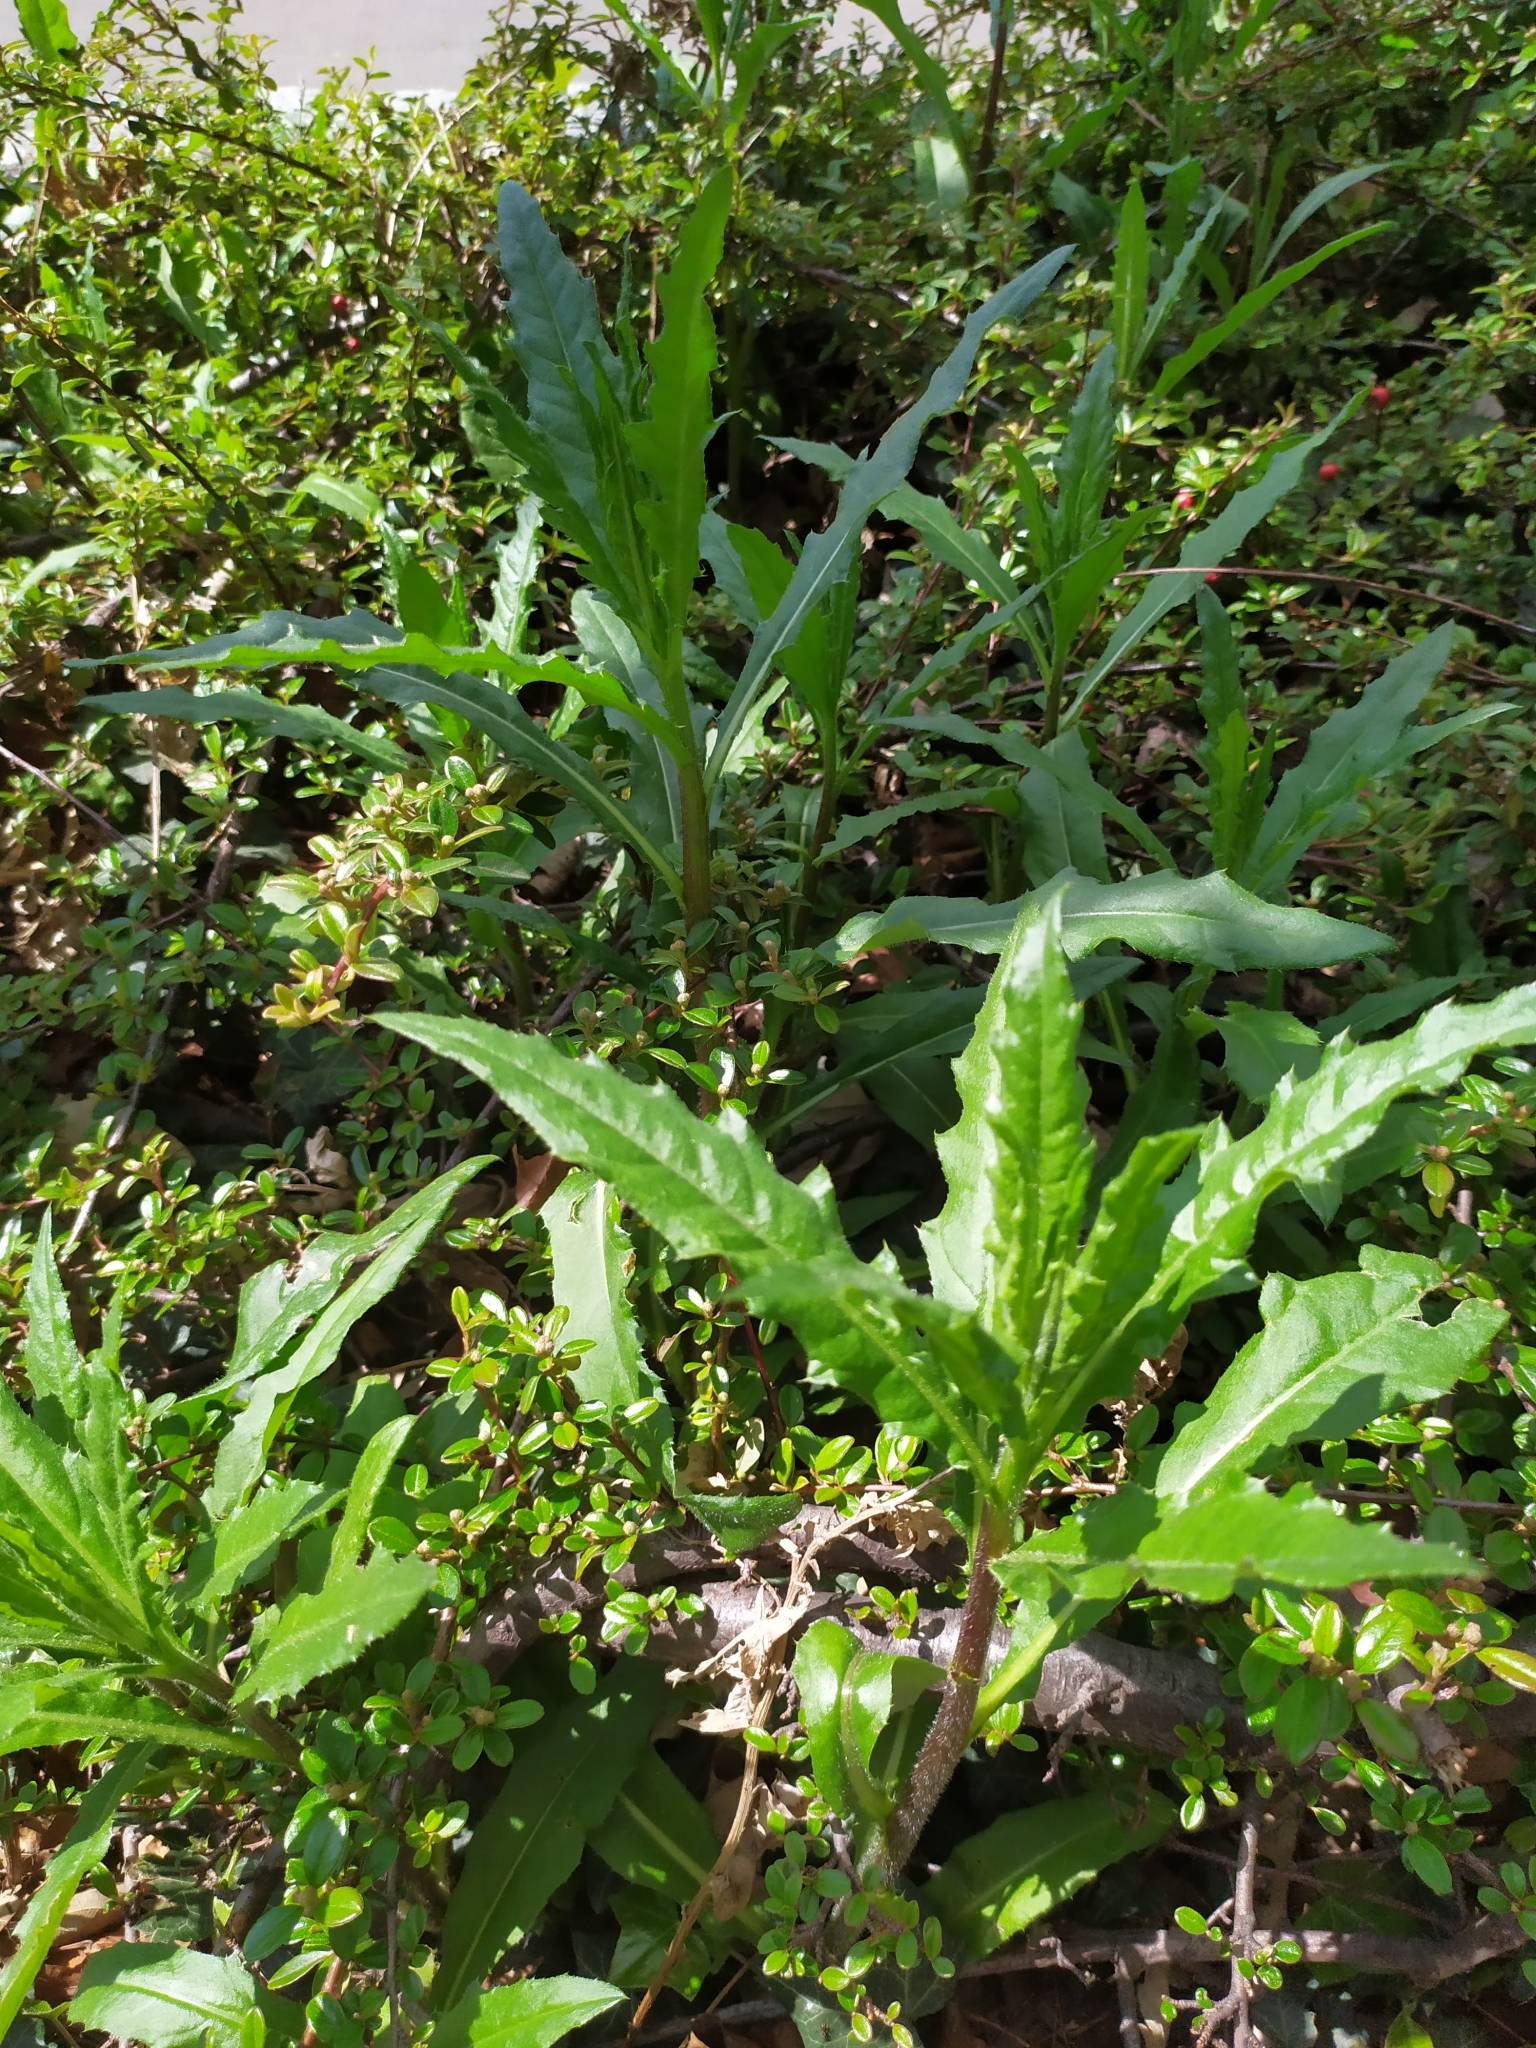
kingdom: Plantae
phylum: Tracheophyta
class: Magnoliopsida
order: Asterales
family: Asteraceae
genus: Cirsium
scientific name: Cirsium arvense
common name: Creeping thistle
